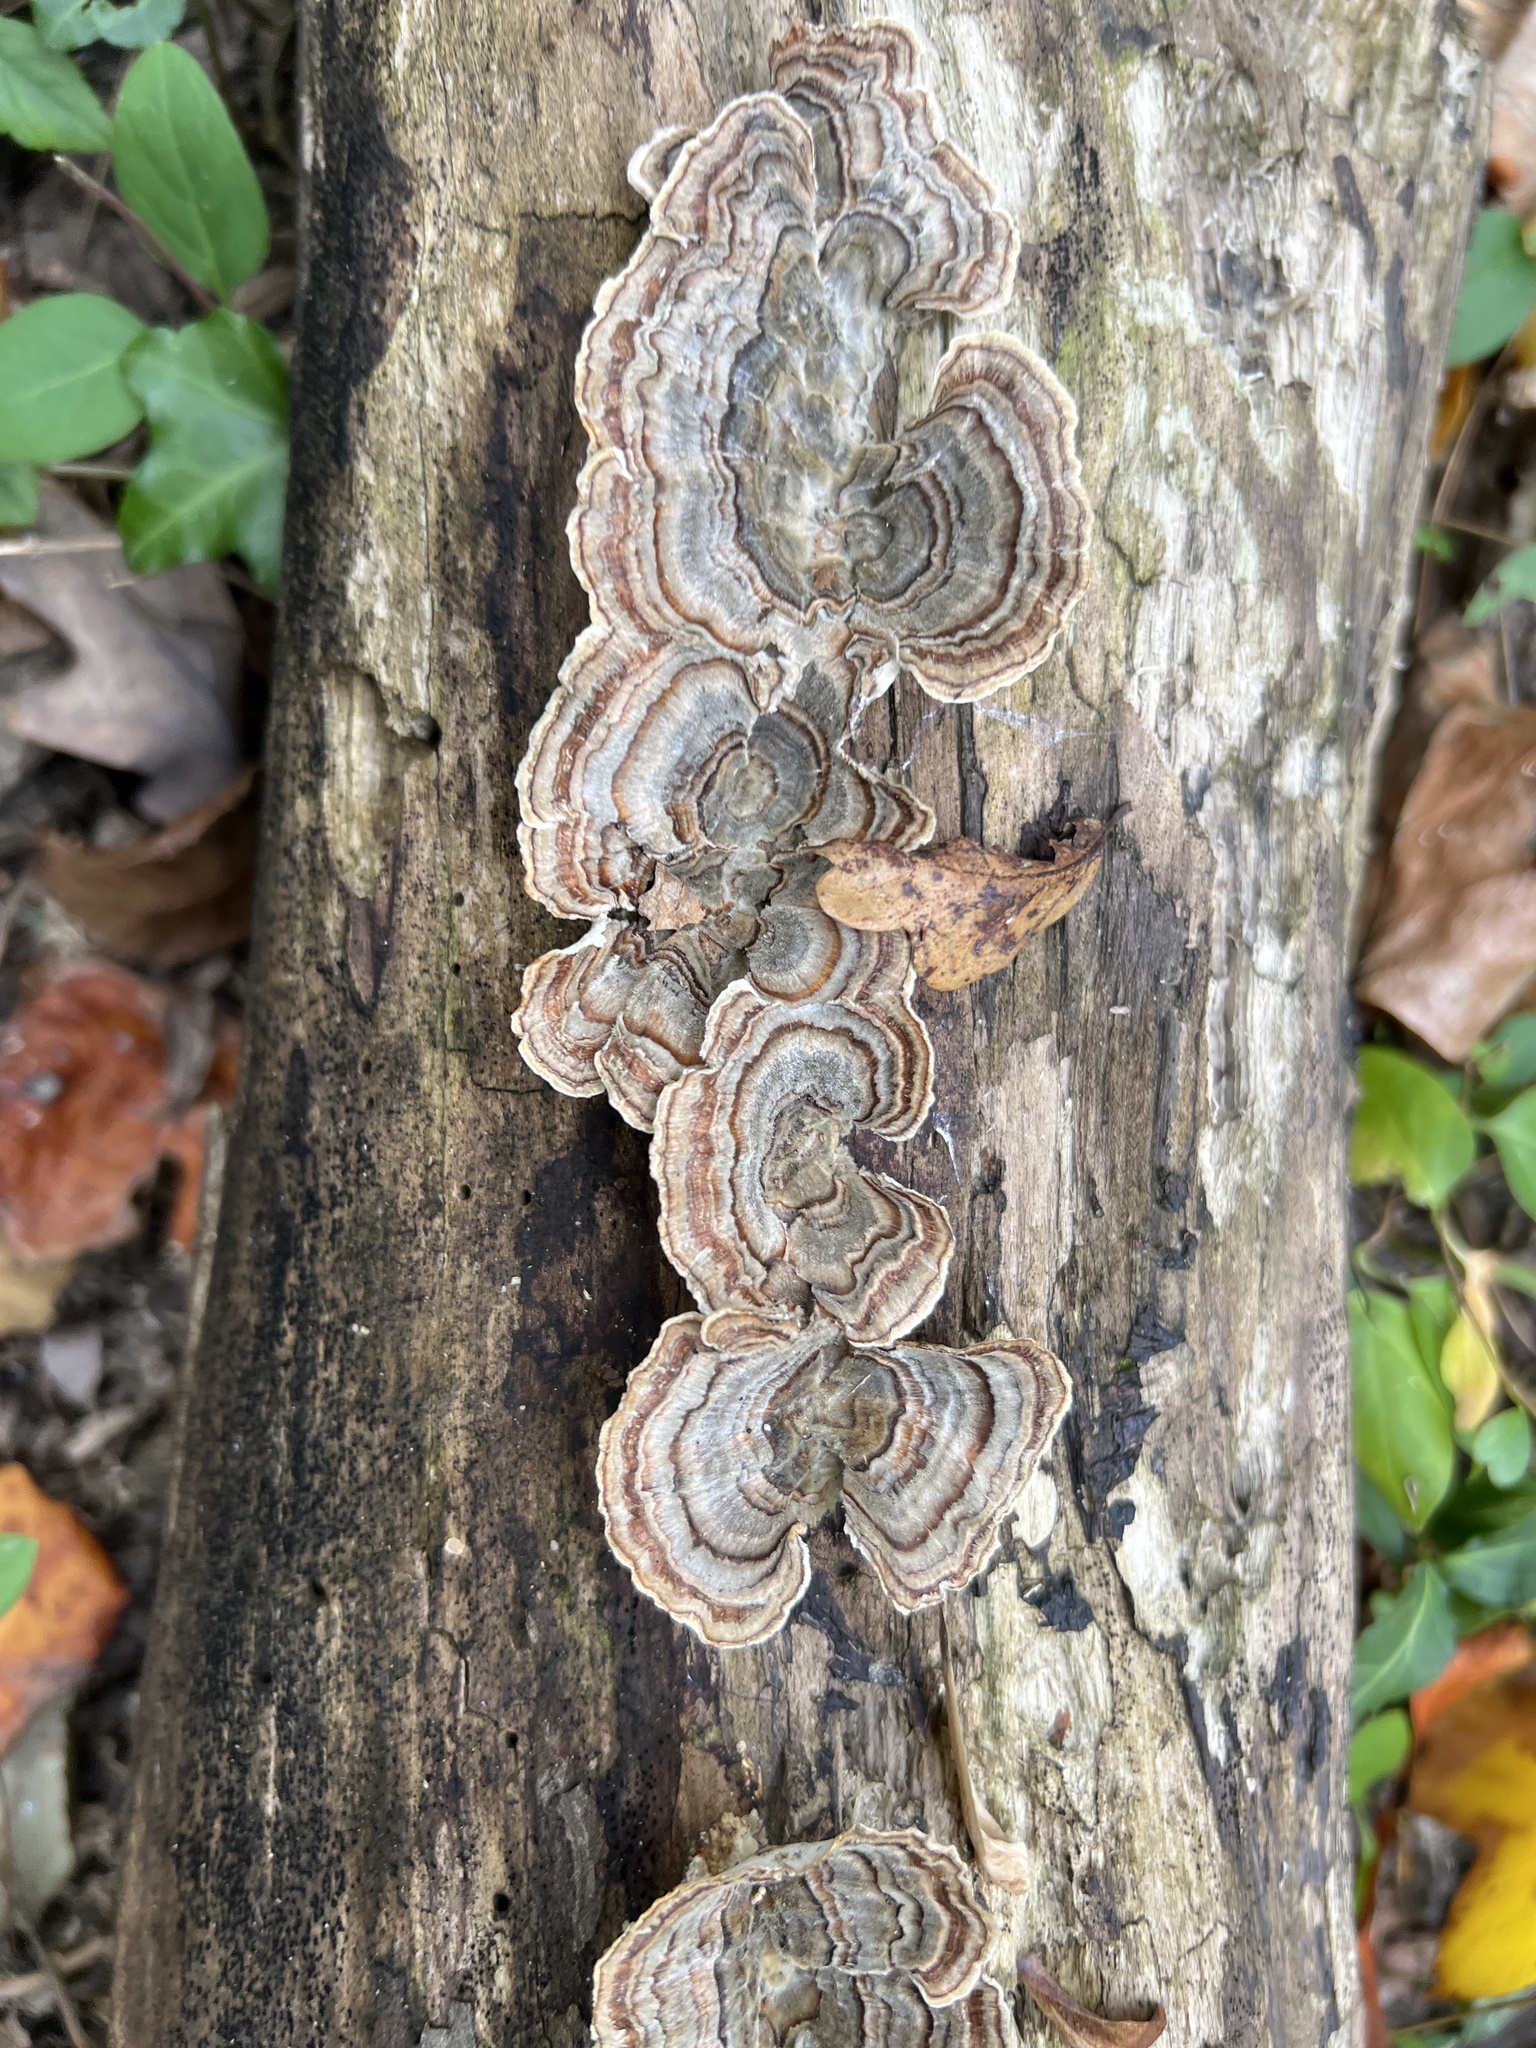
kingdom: Fungi
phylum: Basidiomycota
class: Agaricomycetes
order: Polyporales
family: Polyporaceae
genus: Trametes
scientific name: Trametes versicolor
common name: Turkeytail
